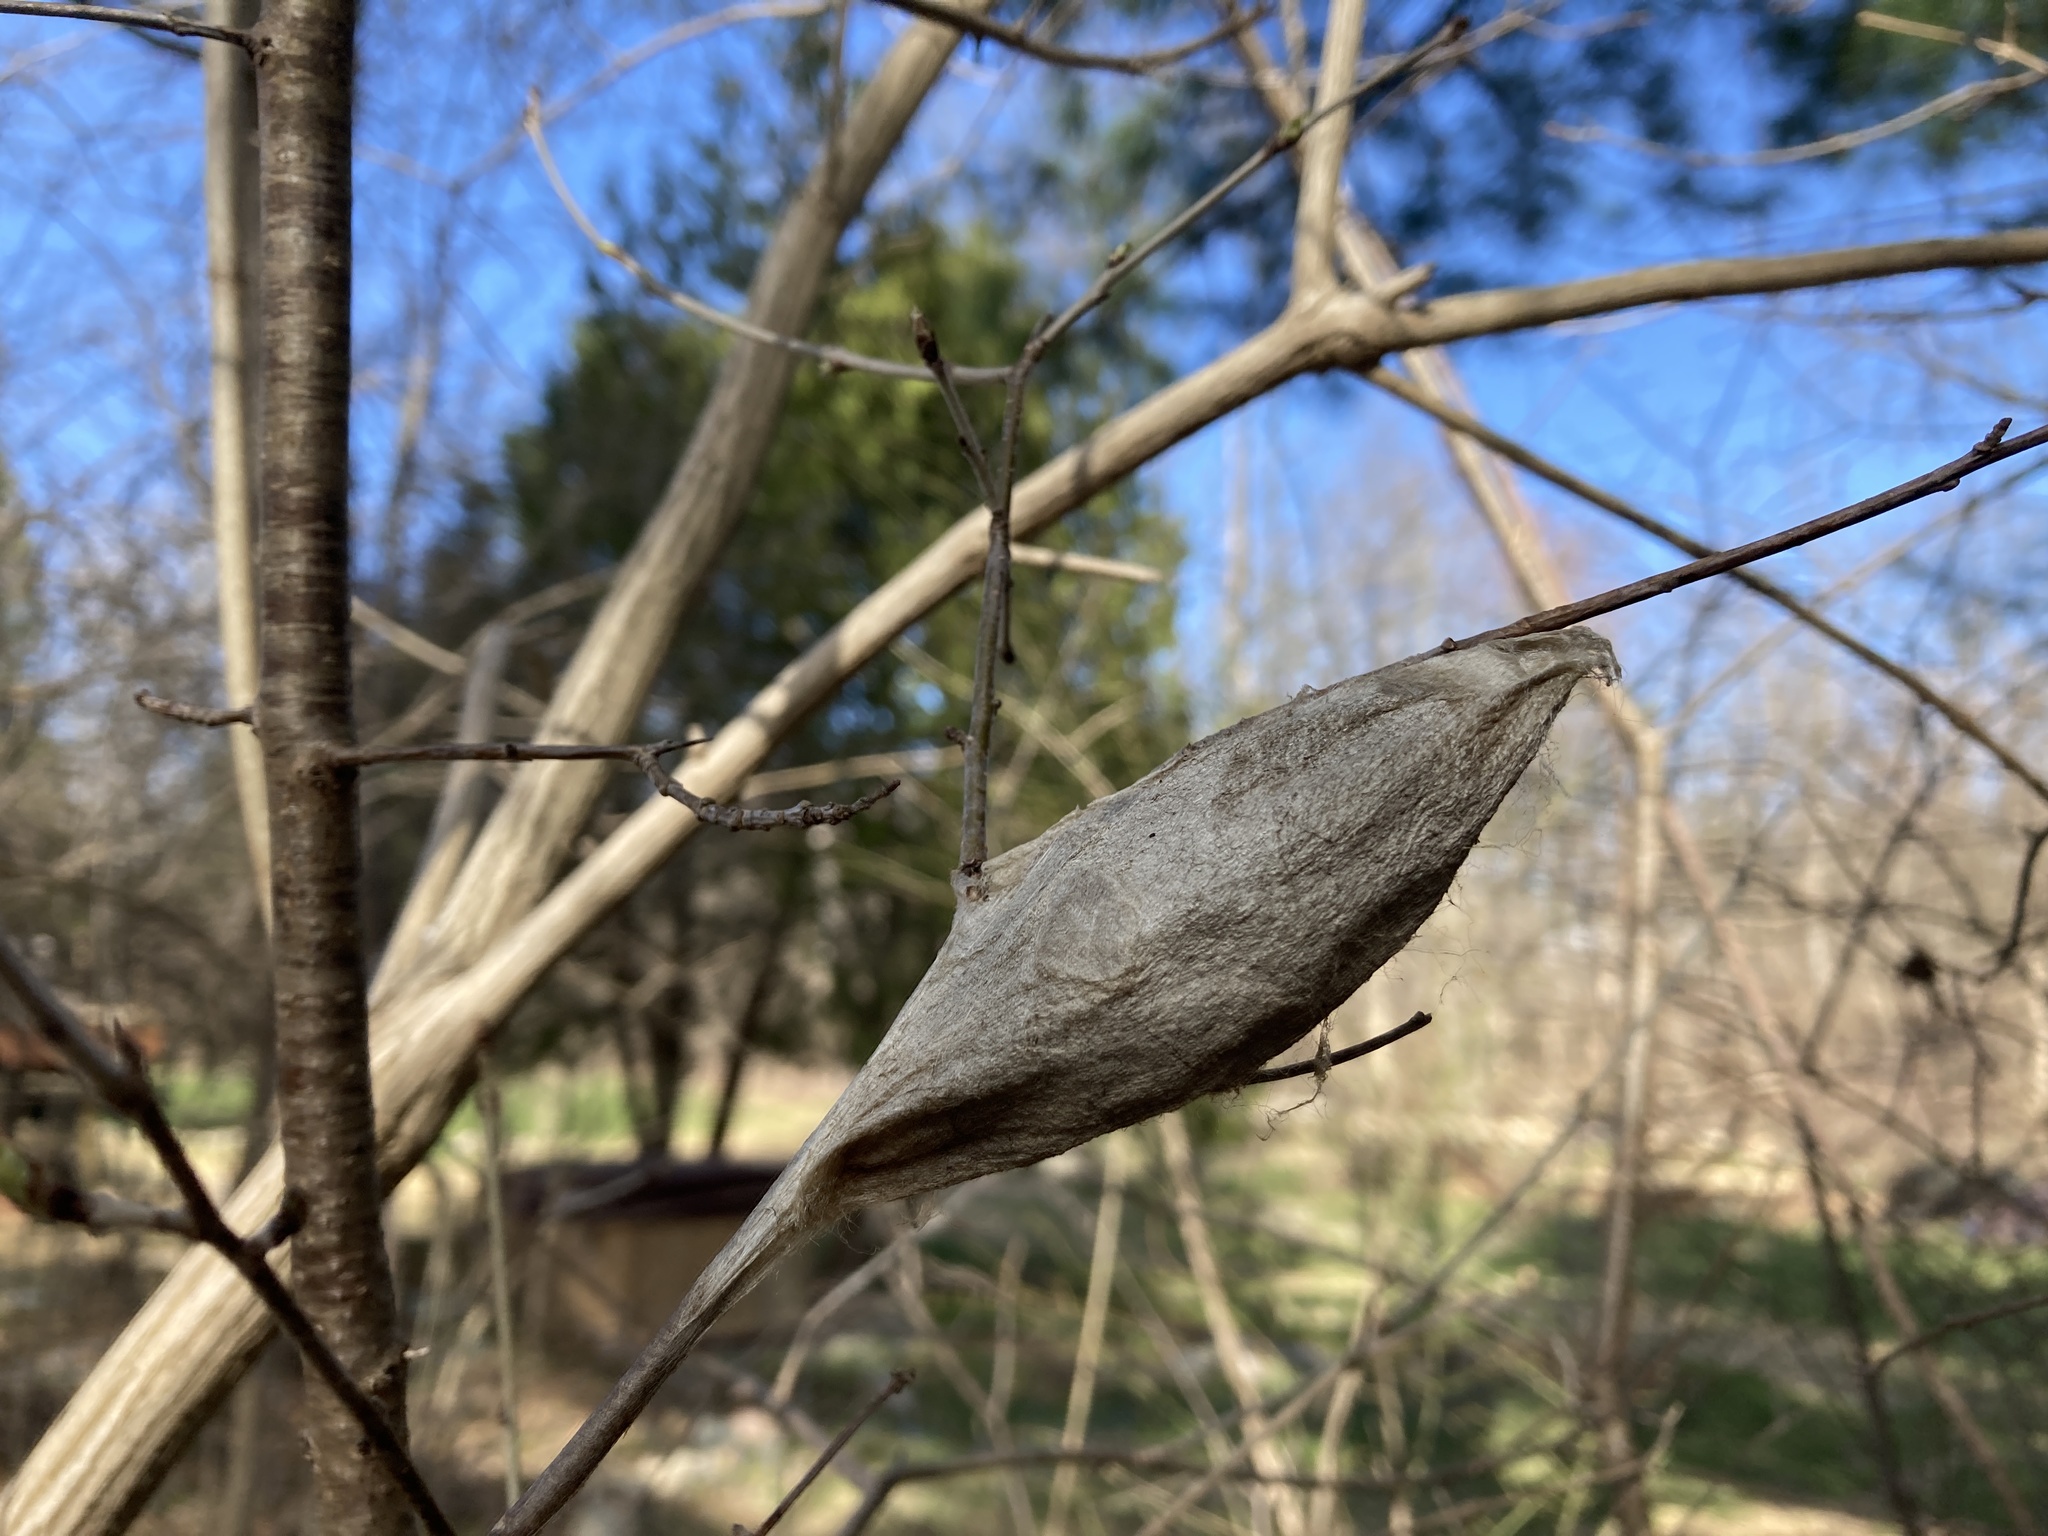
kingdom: Animalia
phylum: Arthropoda
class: Insecta
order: Lepidoptera
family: Saturniidae
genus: Hyalophora
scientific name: Hyalophora cecropia
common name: Cecropia silkmoth
